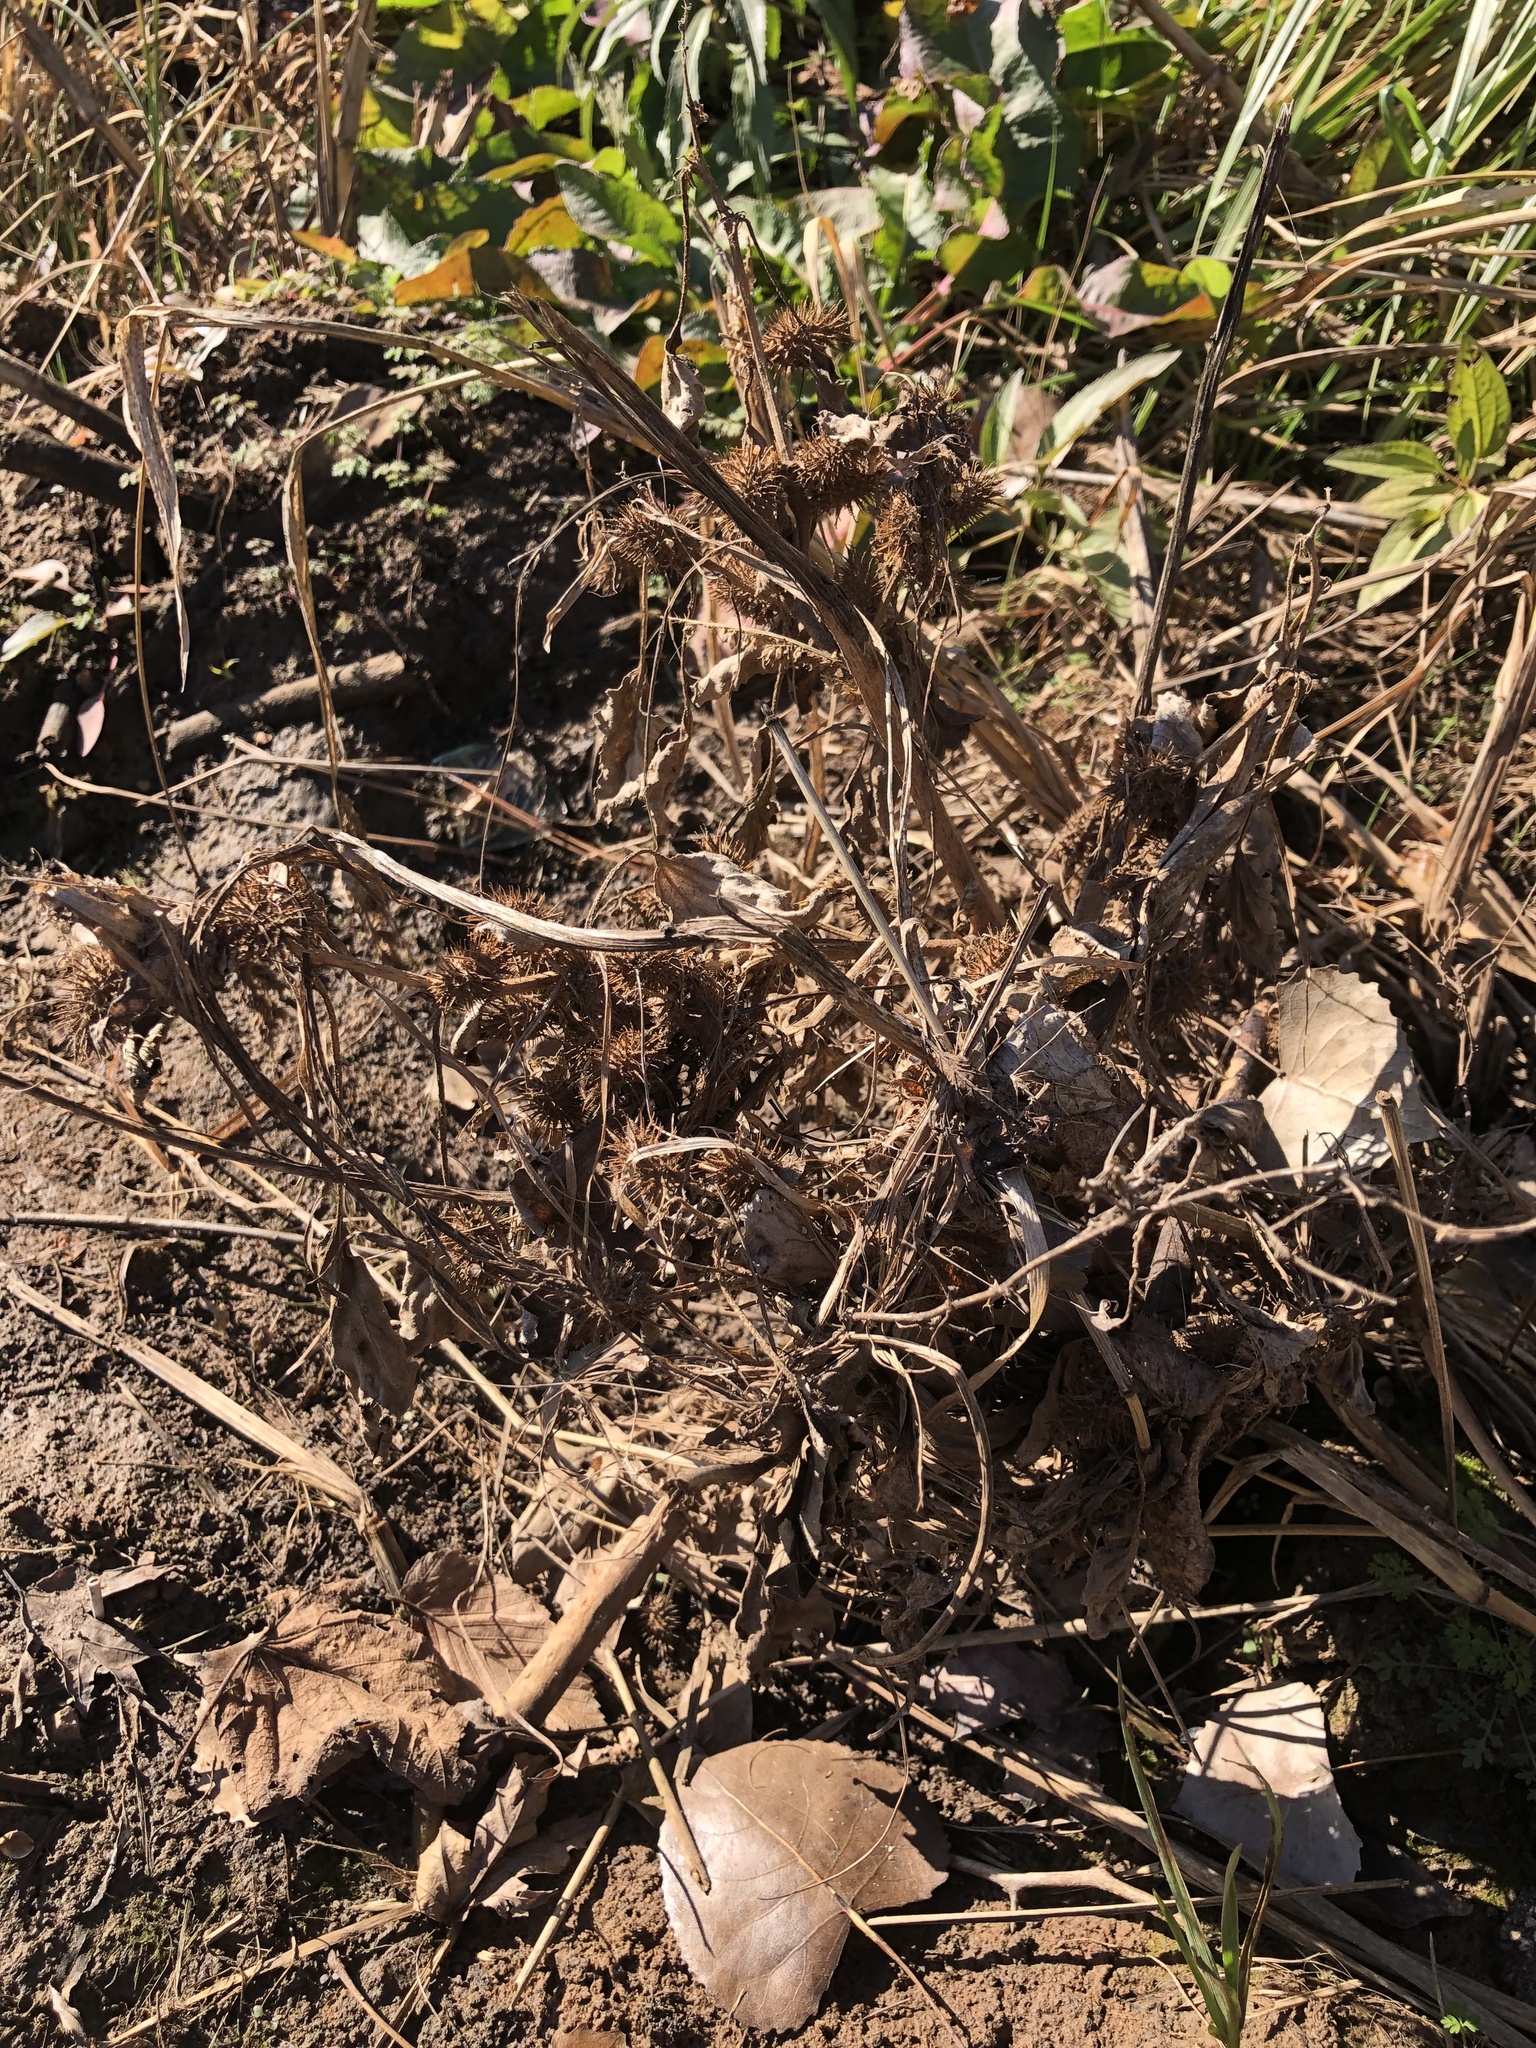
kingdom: Plantae
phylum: Tracheophyta
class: Magnoliopsida
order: Asterales
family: Asteraceae
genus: Xanthium
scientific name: Xanthium strumarium
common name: Rough cocklebur
